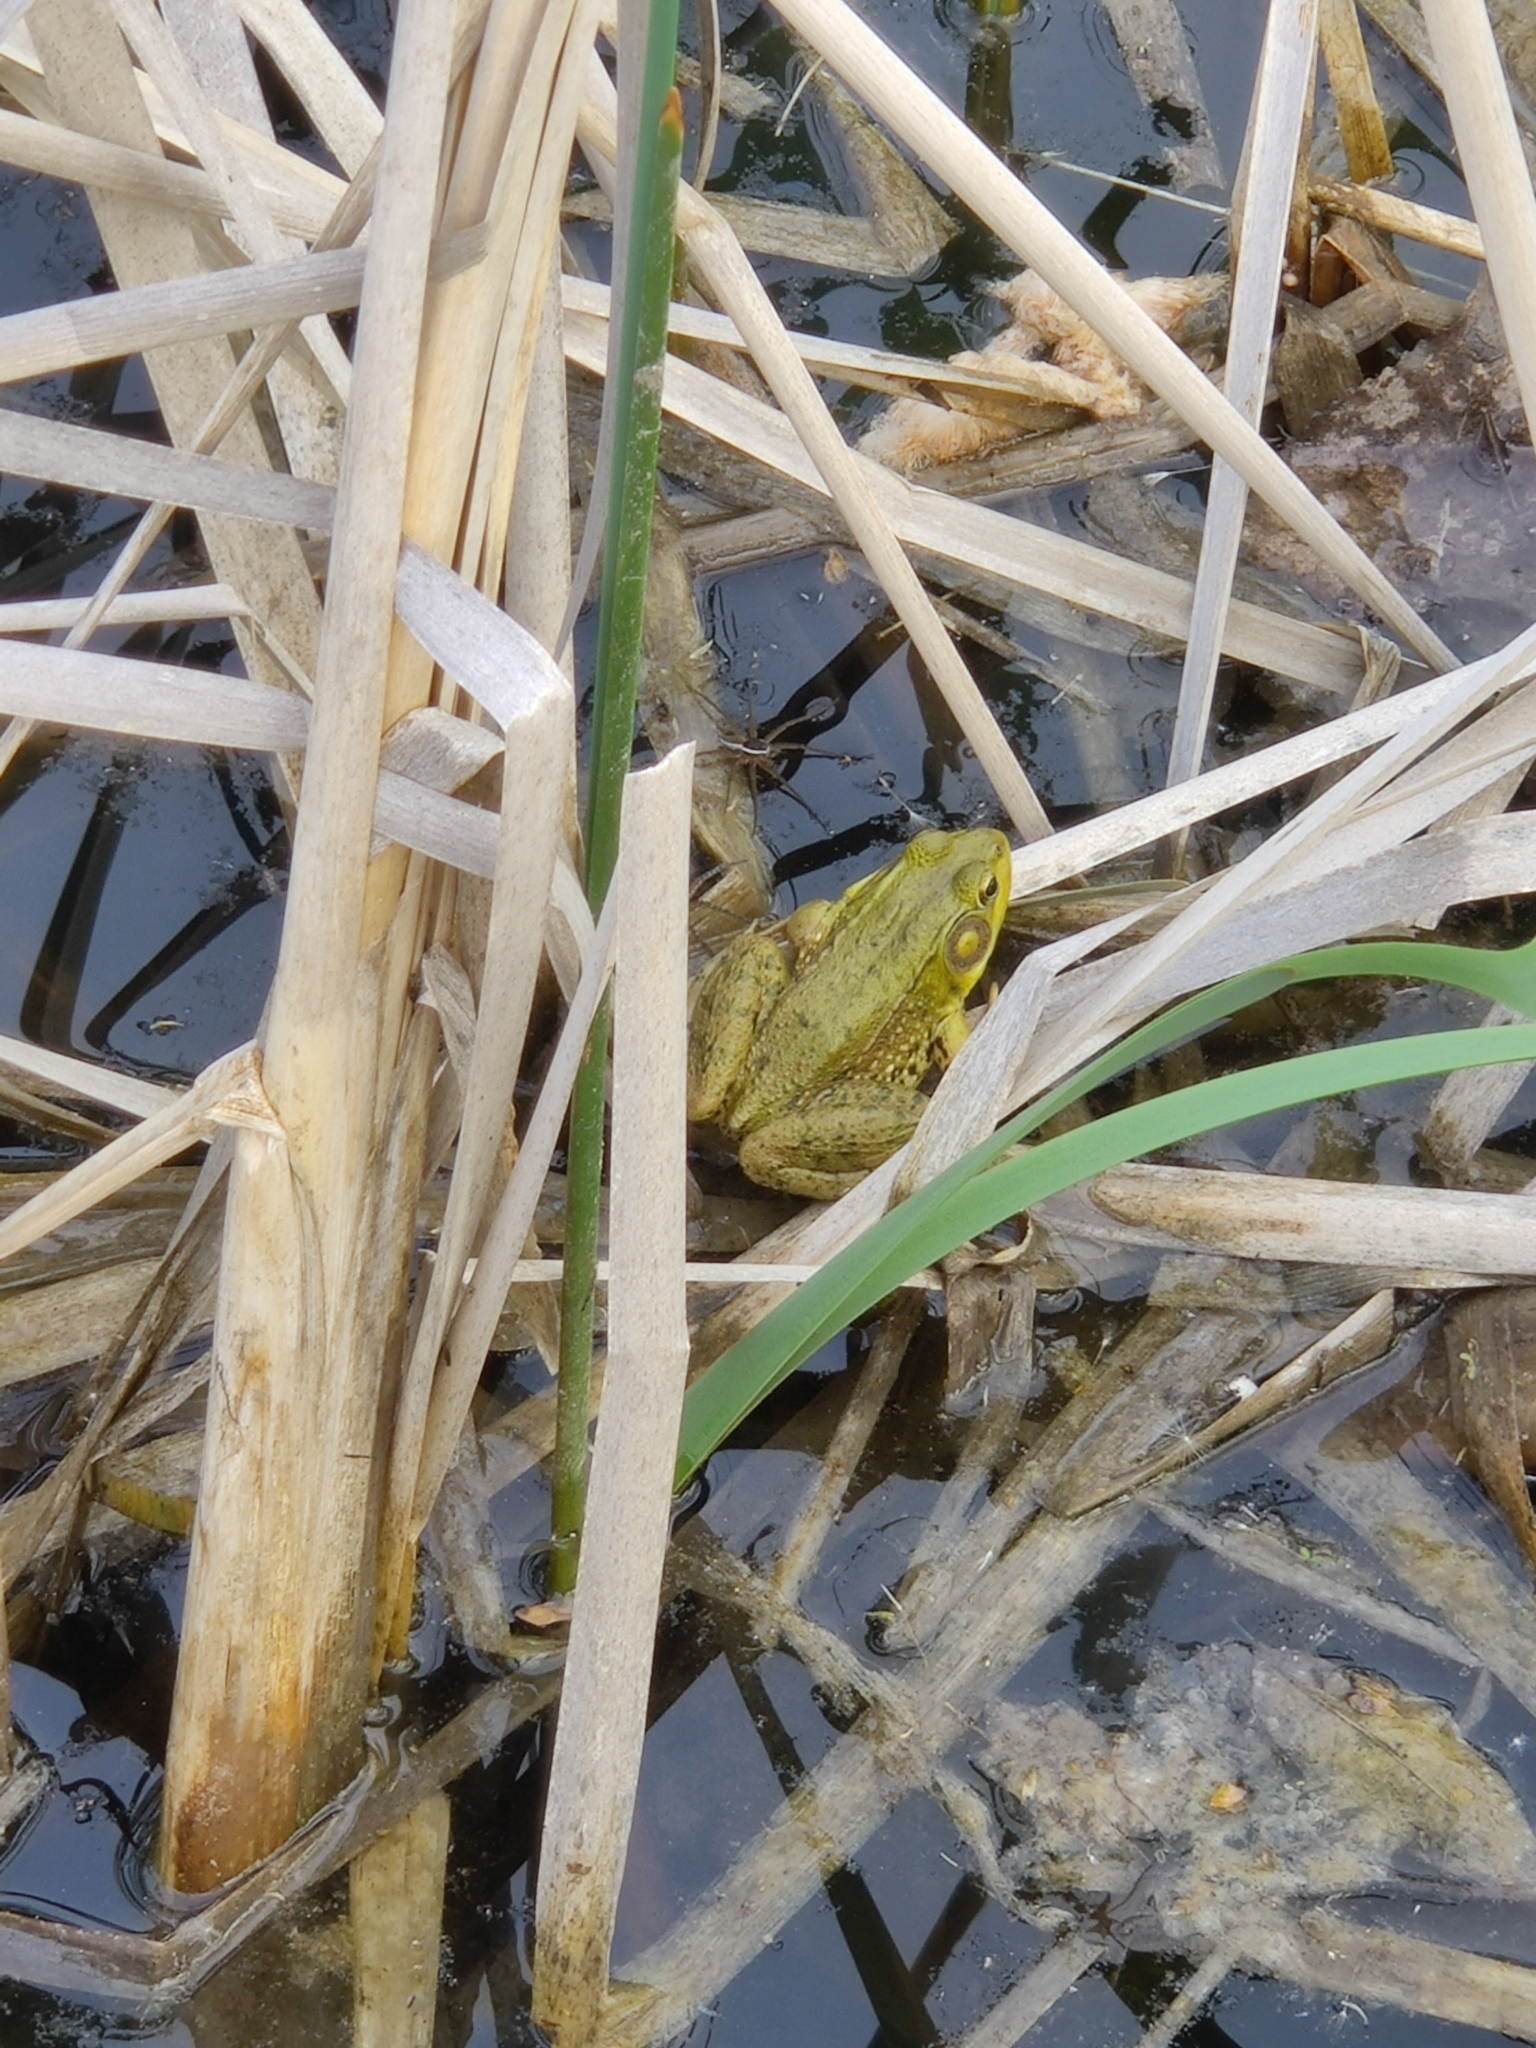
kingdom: Animalia
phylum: Chordata
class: Amphibia
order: Anura
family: Ranidae
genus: Lithobates
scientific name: Lithobates clamitans
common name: Green frog
